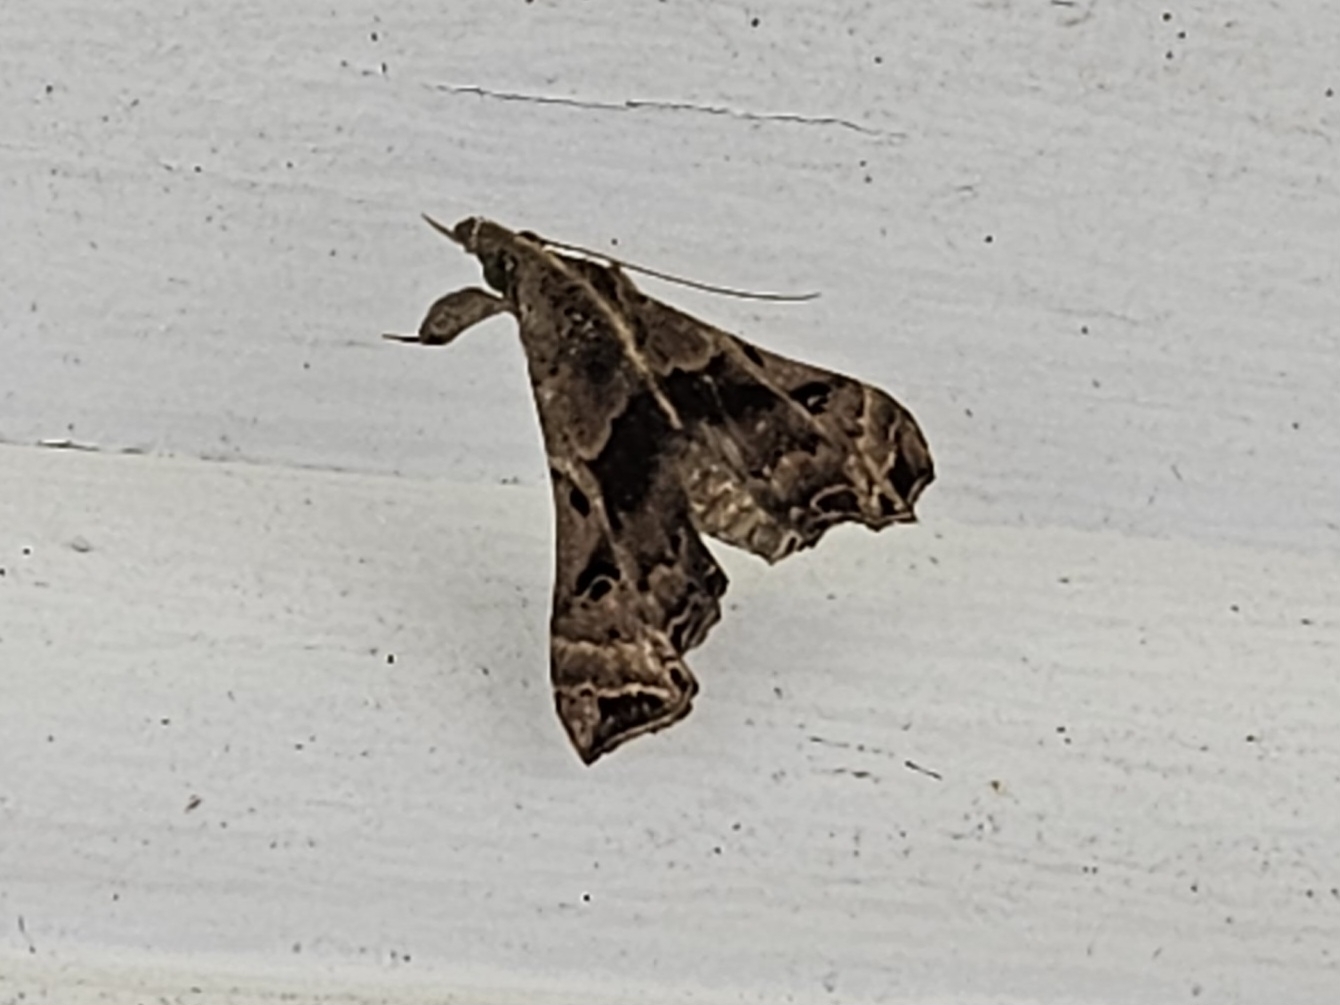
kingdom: Animalia
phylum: Arthropoda
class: Insecta
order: Lepidoptera
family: Erebidae
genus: Palthis
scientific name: Palthis asopialis
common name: Faint-spotted palthis moth
